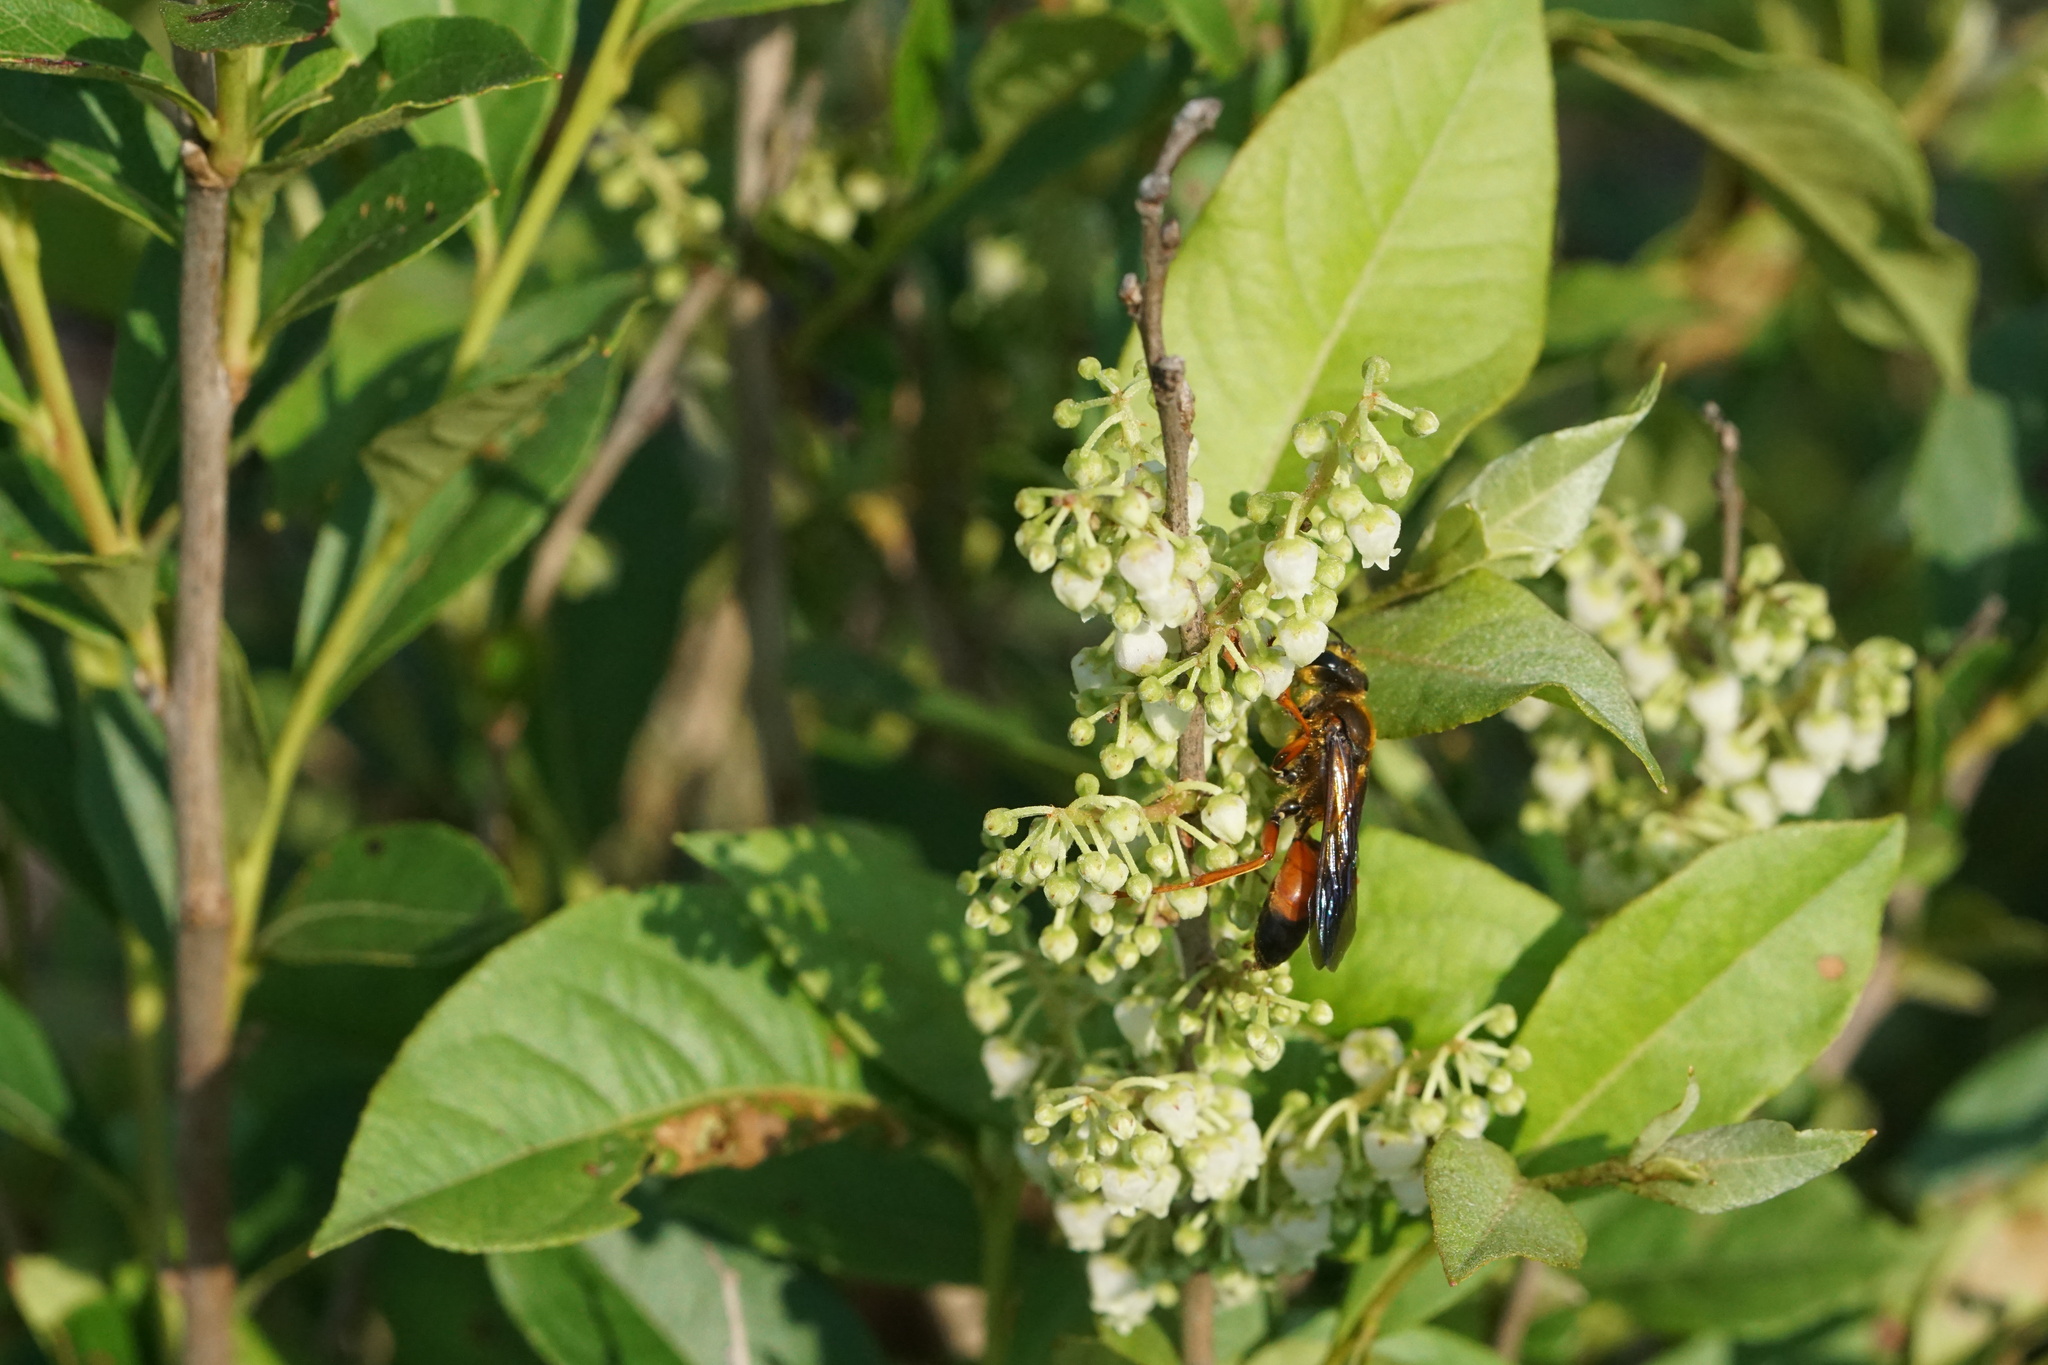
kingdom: Animalia
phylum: Arthropoda
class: Insecta
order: Hymenoptera
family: Sphecidae
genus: Sphex
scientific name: Sphex ichneumoneus
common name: Great golden digger wasp
